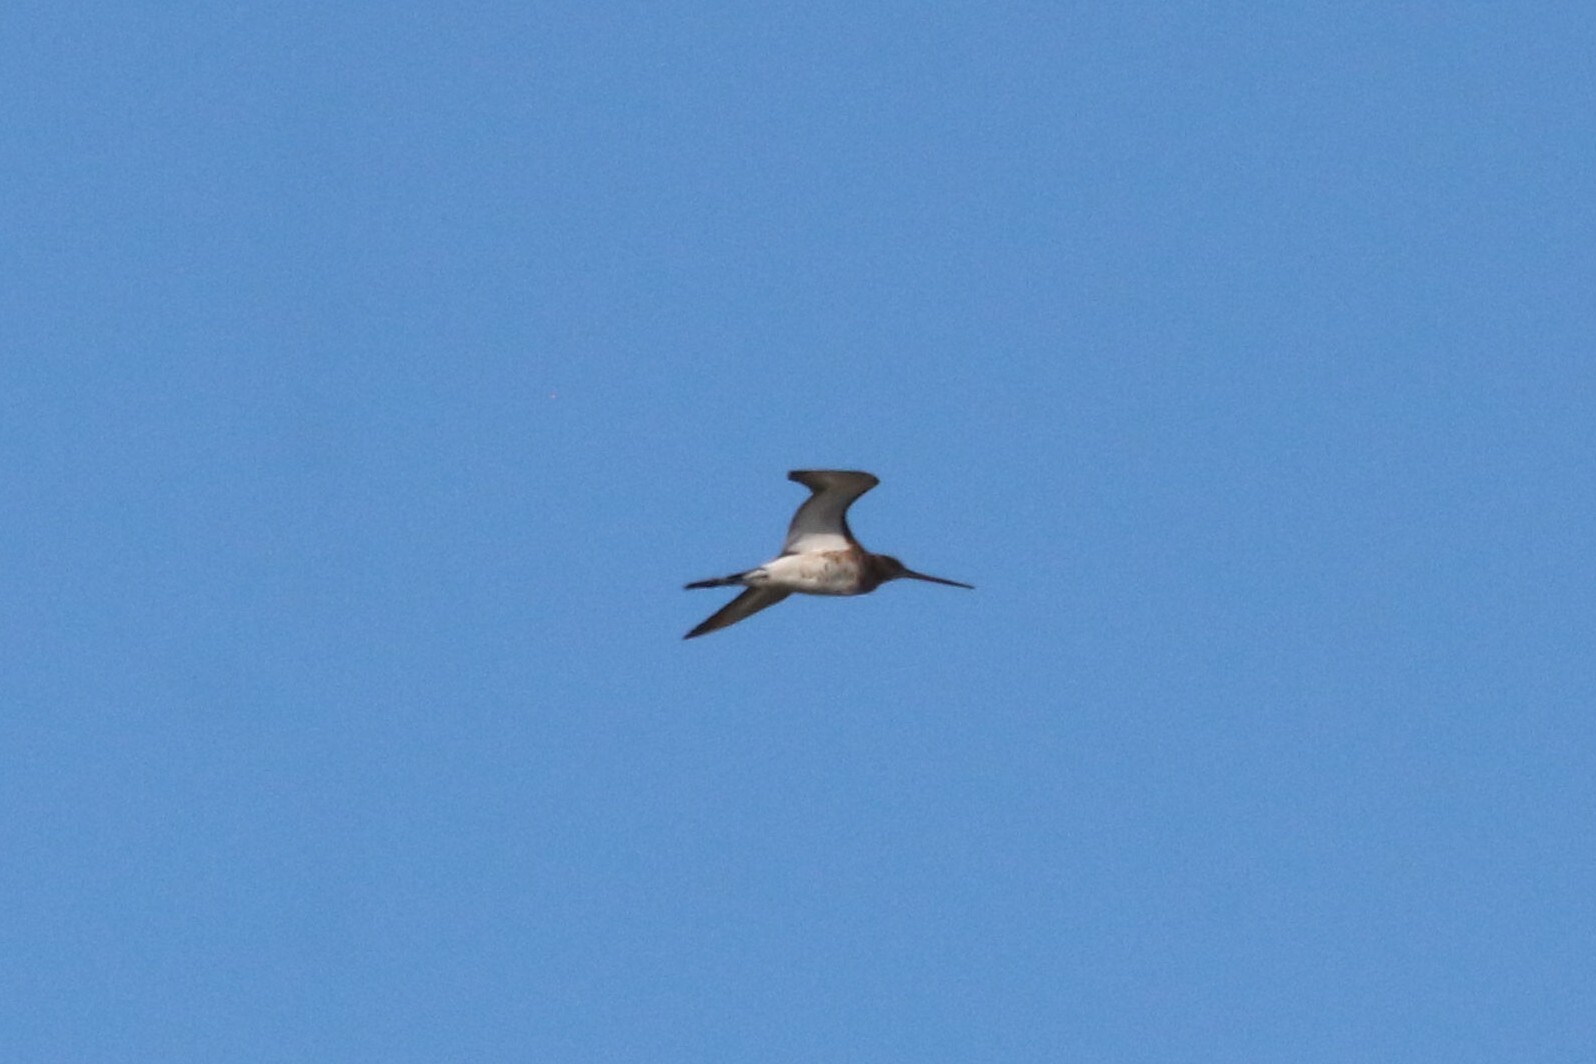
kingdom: Animalia
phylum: Chordata
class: Aves
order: Charadriiformes
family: Scolopacidae
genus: Limosa
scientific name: Limosa limosa
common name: Black-tailed godwit
